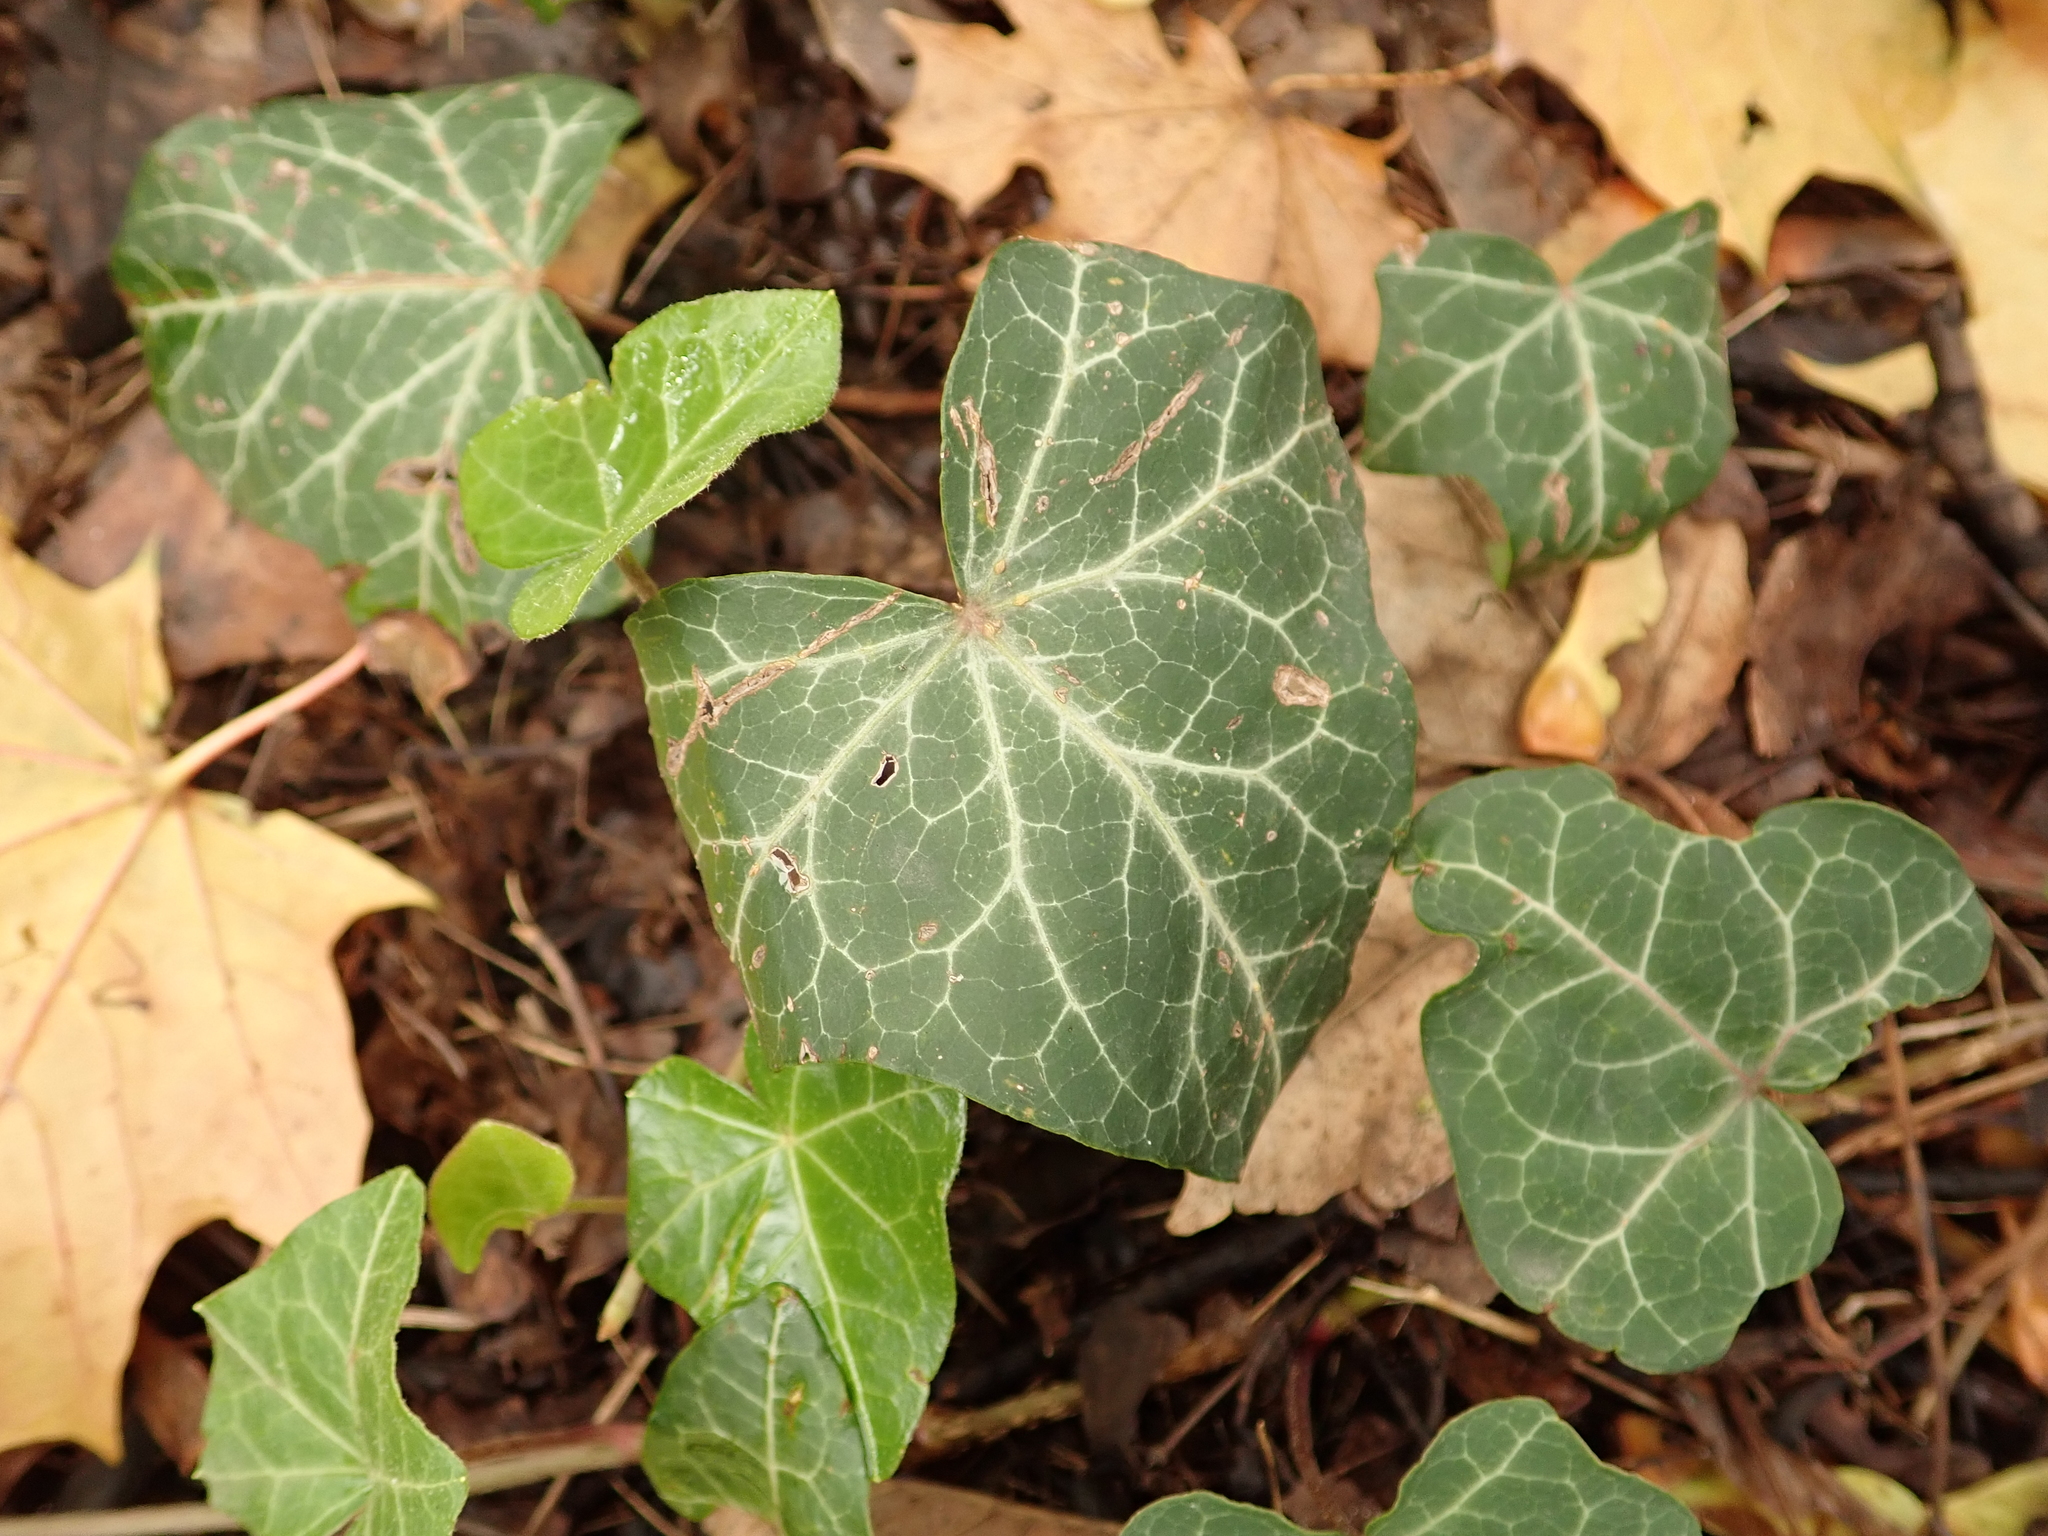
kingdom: Plantae
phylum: Tracheophyta
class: Magnoliopsida
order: Apiales
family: Araliaceae
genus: Hedera
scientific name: Hedera helix
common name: Ivy
